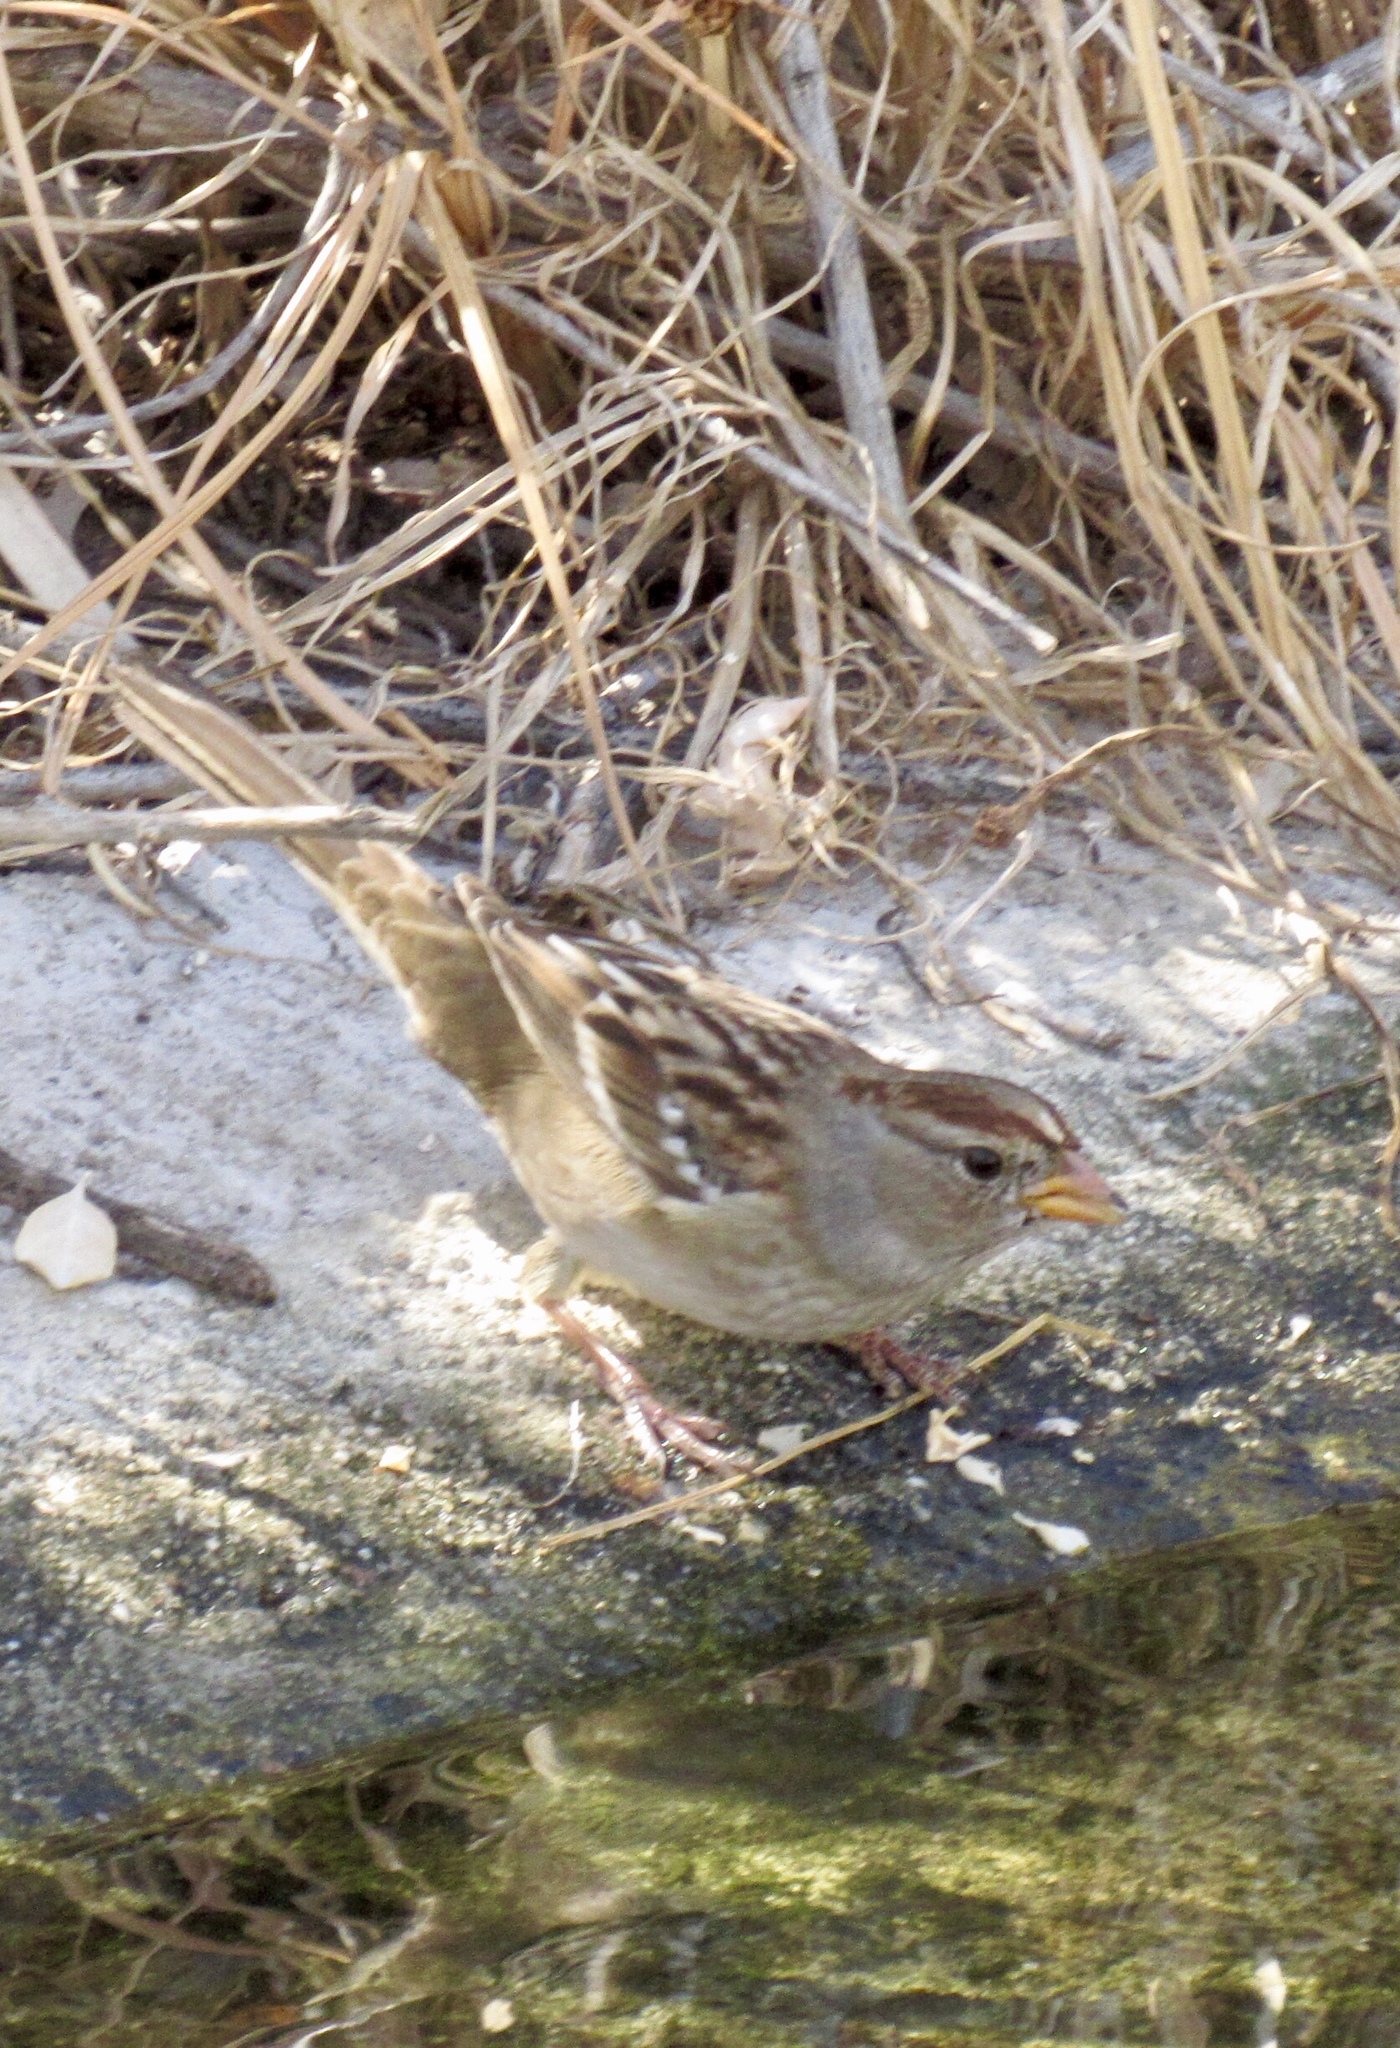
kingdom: Animalia
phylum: Chordata
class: Aves
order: Passeriformes
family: Passerellidae
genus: Zonotrichia
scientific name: Zonotrichia leucophrys
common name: White-crowned sparrow
